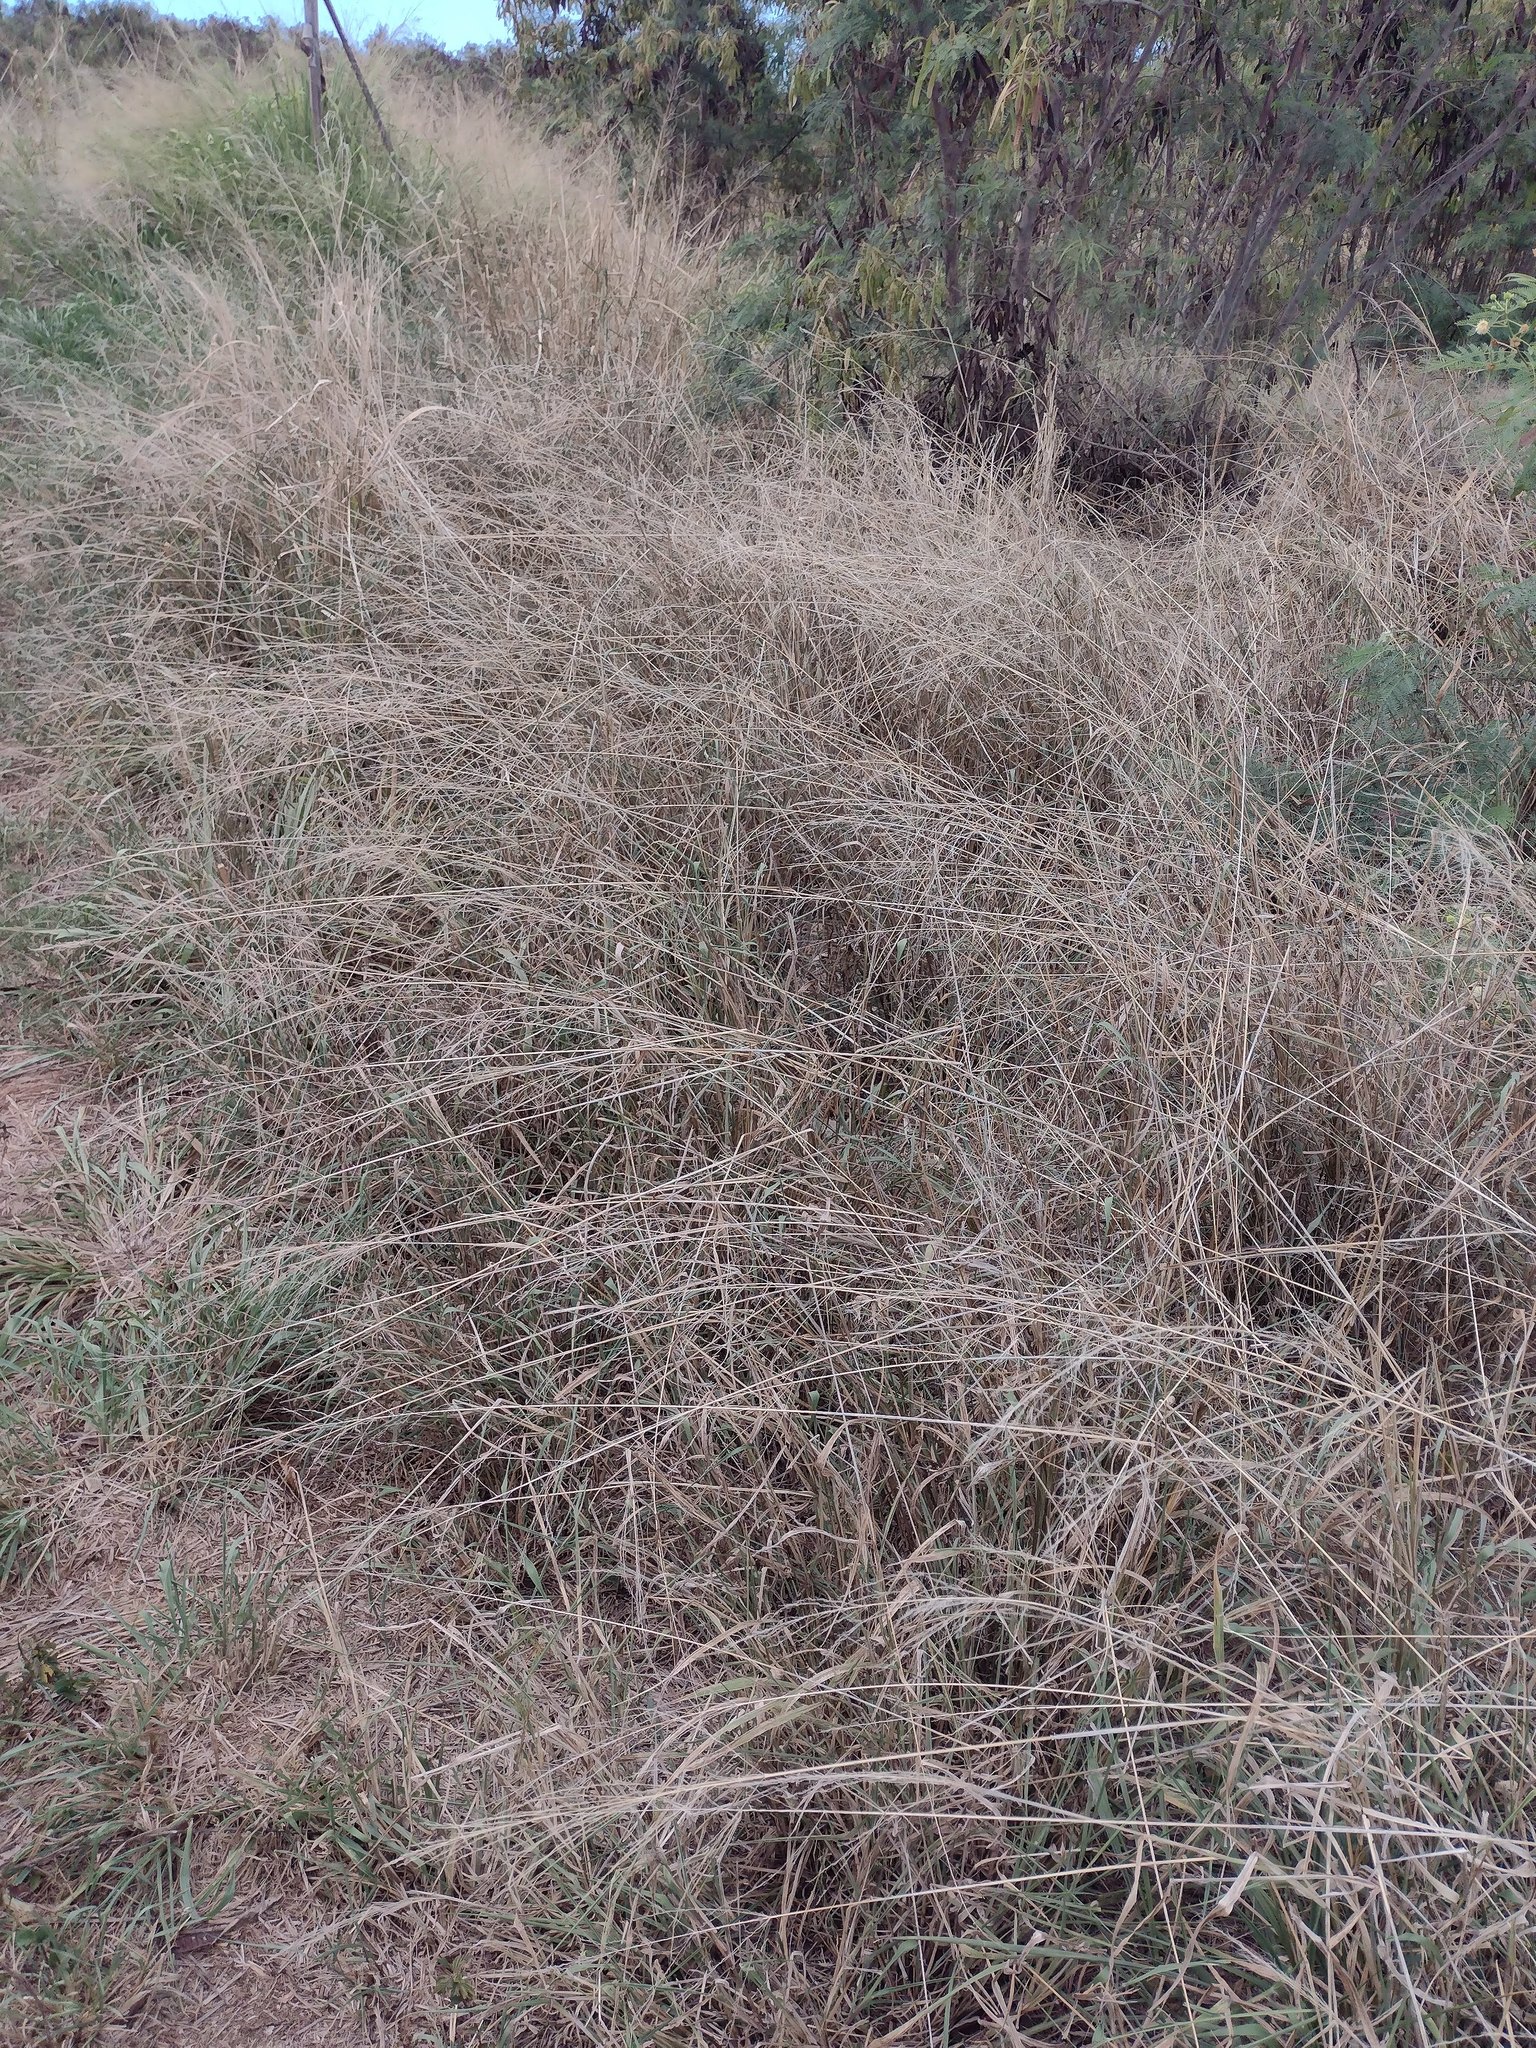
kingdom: Plantae
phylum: Tracheophyta
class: Liliopsida
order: Poales
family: Poaceae
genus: Megathyrsus
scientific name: Megathyrsus maximus
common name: Guineagrass
